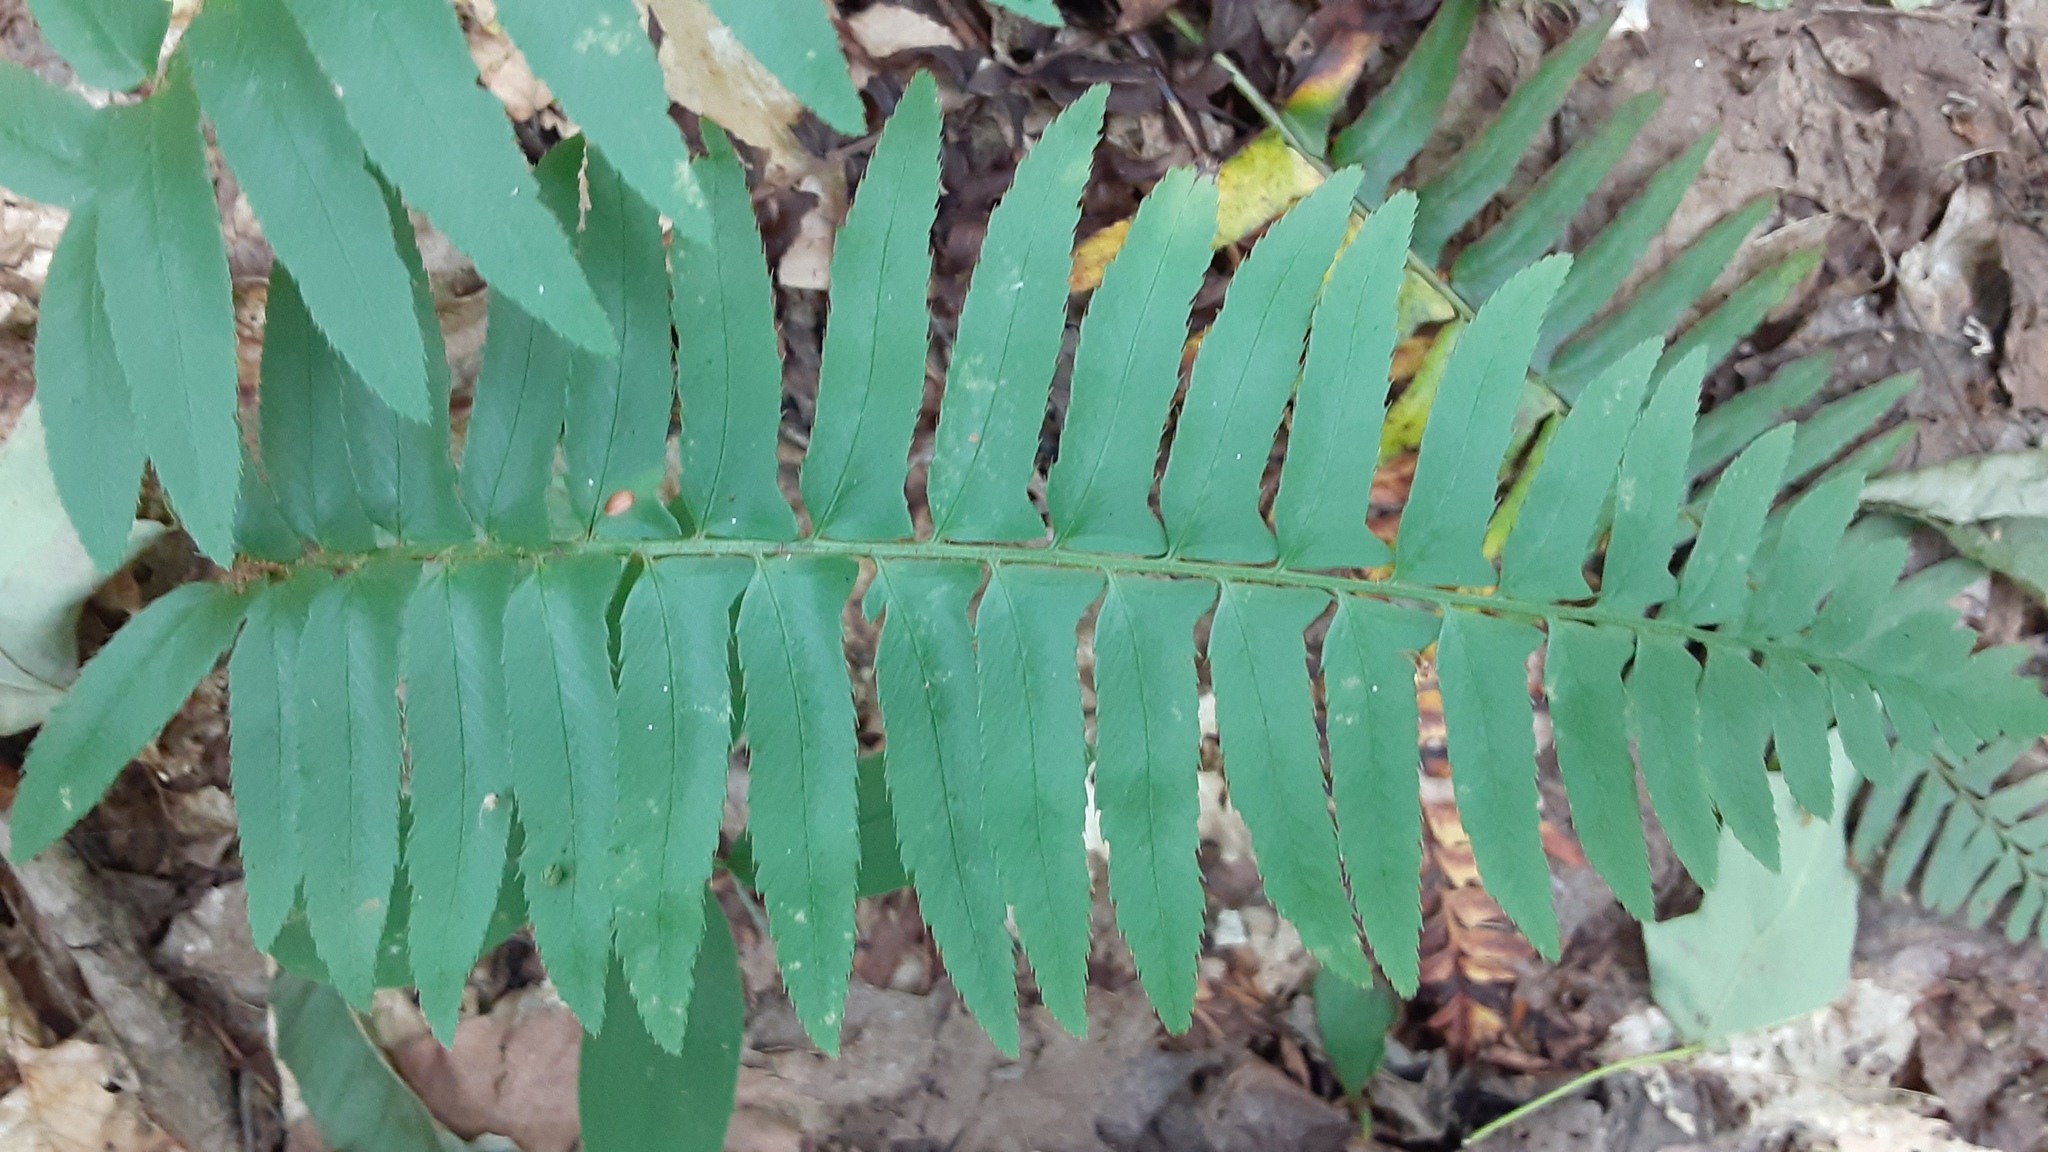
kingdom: Plantae
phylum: Tracheophyta
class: Polypodiopsida
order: Polypodiales
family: Dryopteridaceae
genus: Polystichum
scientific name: Polystichum acrostichoides
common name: Christmas fern
